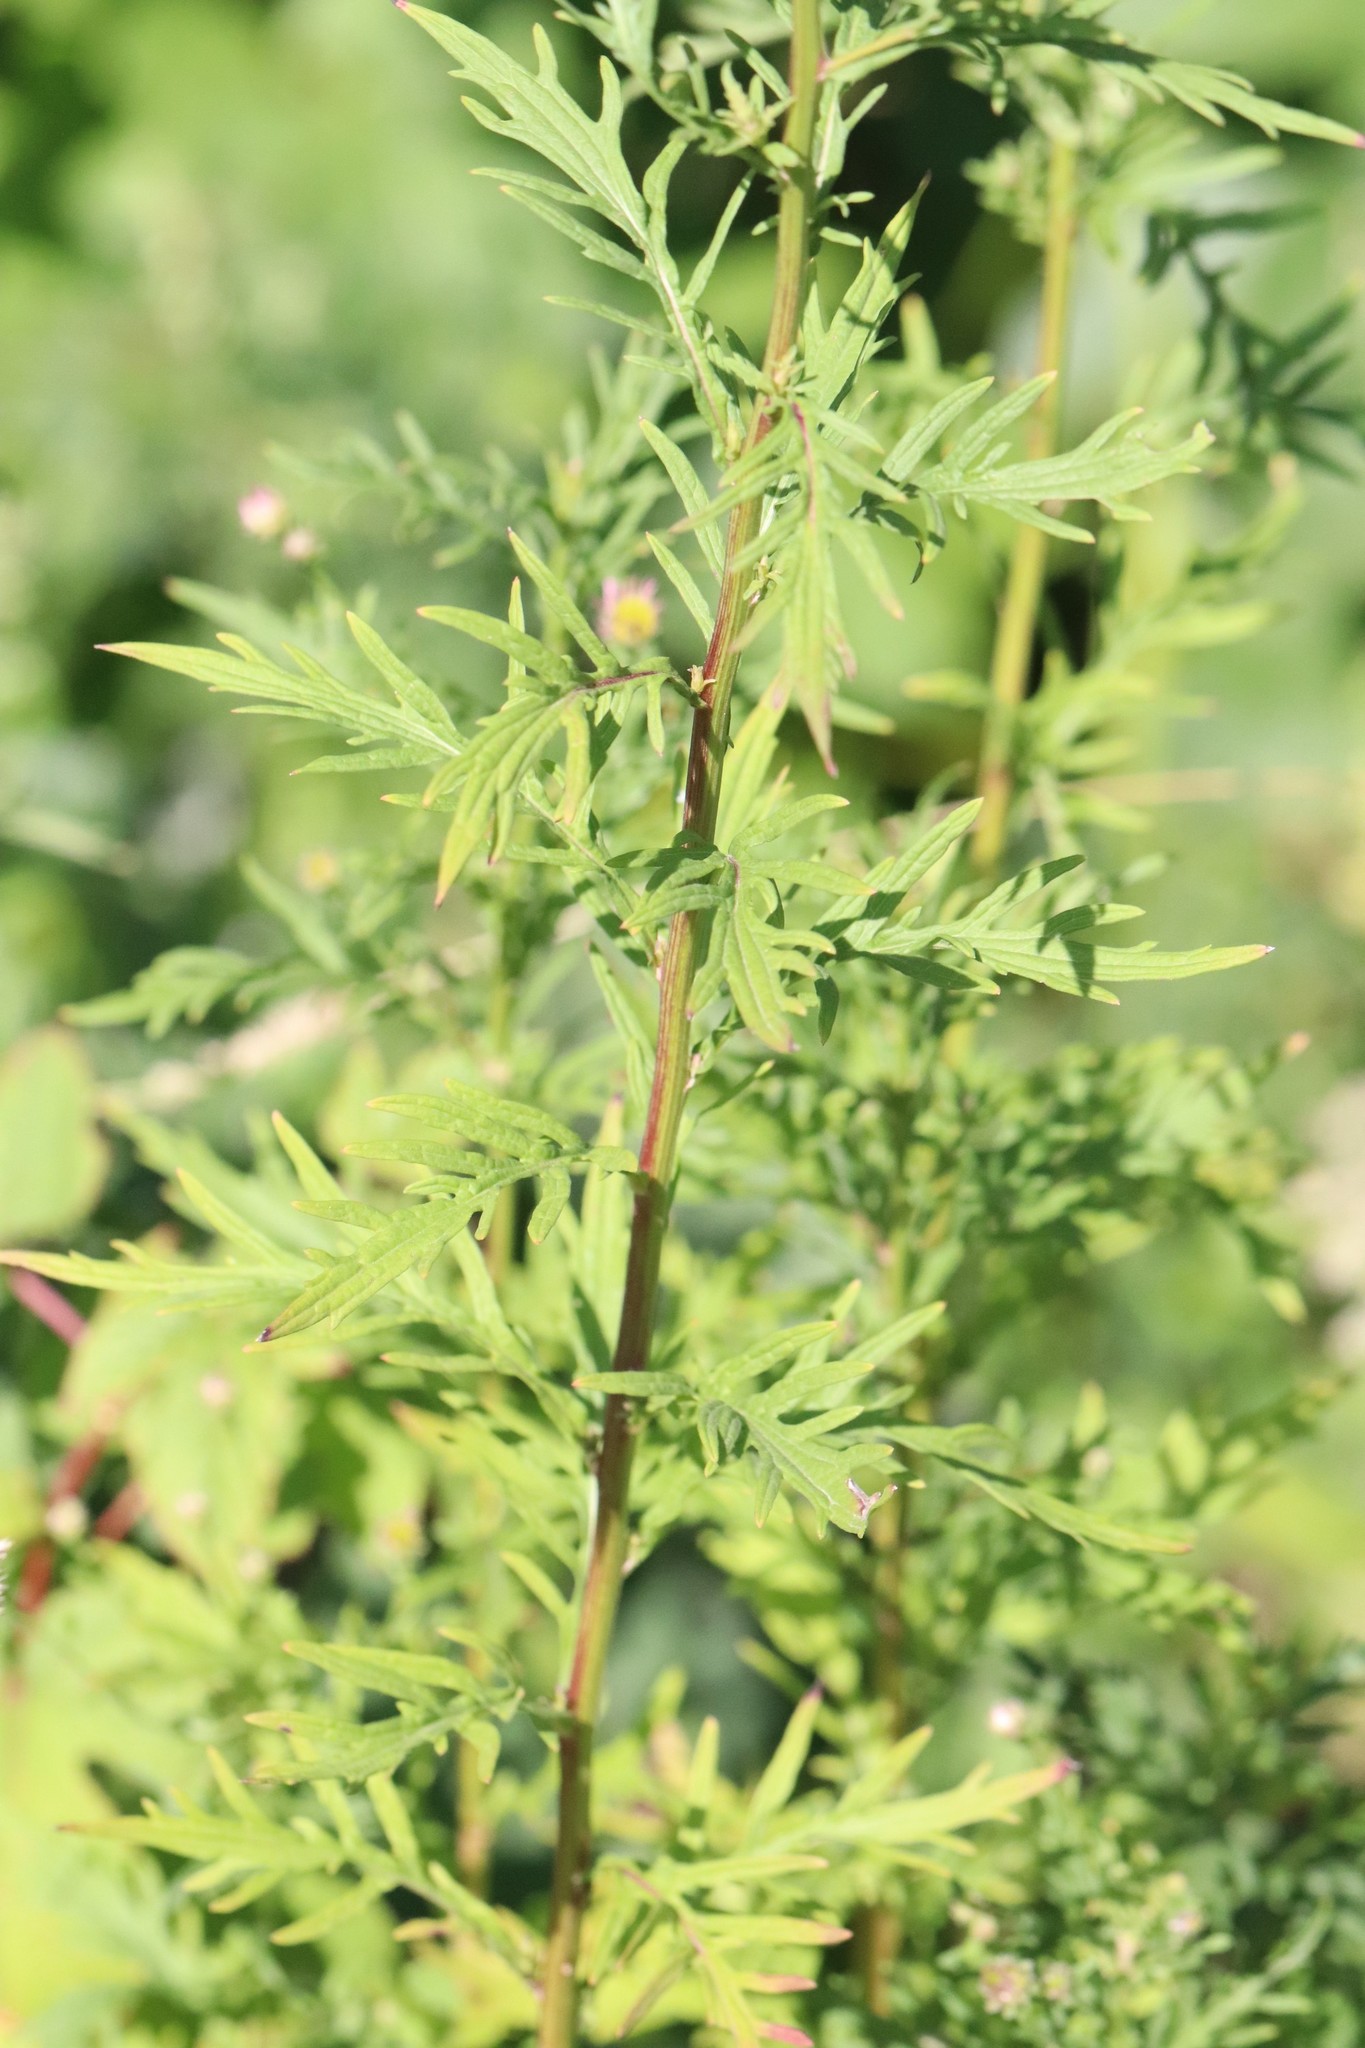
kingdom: Plantae
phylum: Tracheophyta
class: Magnoliopsida
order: Asterales
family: Asteraceae
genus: Kalimeris
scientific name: Kalimeris incisa
